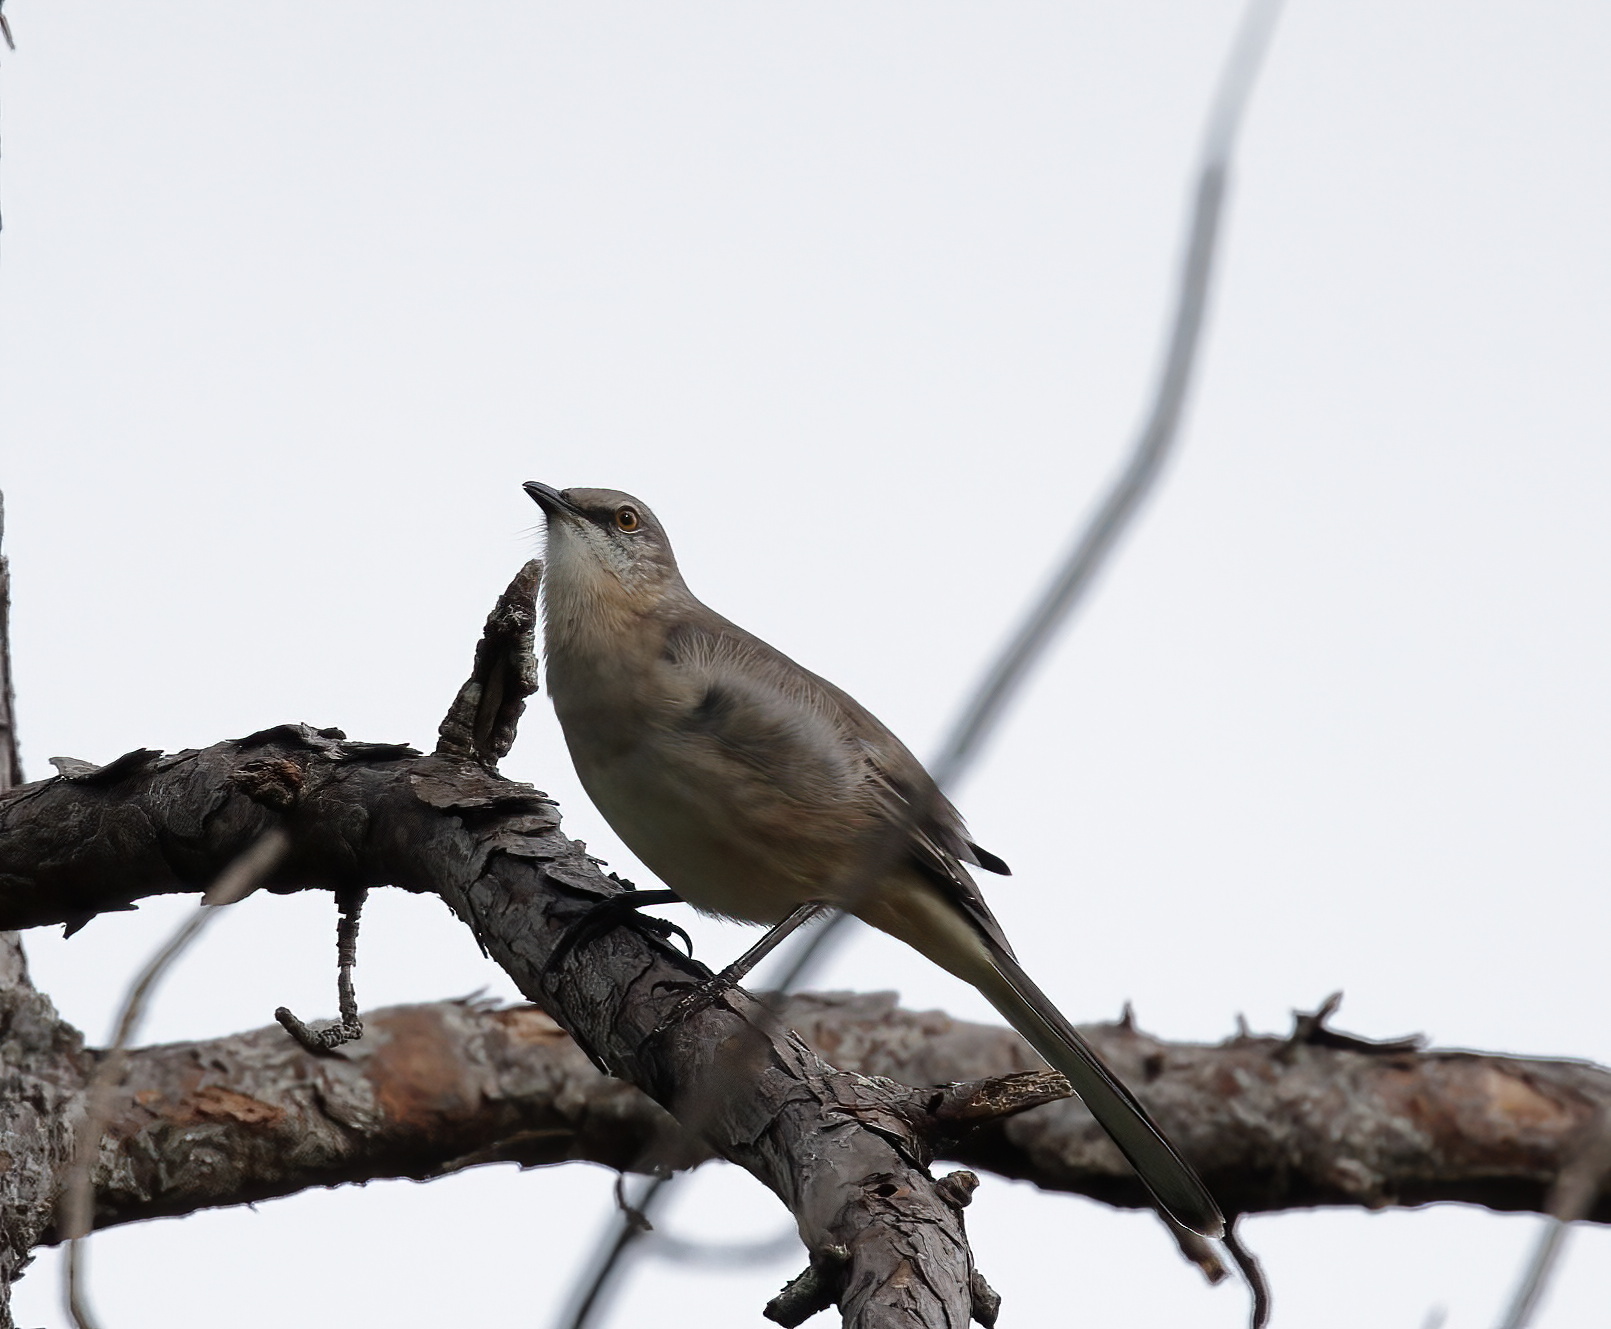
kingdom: Animalia
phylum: Chordata
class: Aves
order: Passeriformes
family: Mimidae
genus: Mimus
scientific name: Mimus polyglottos
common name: Northern mockingbird
